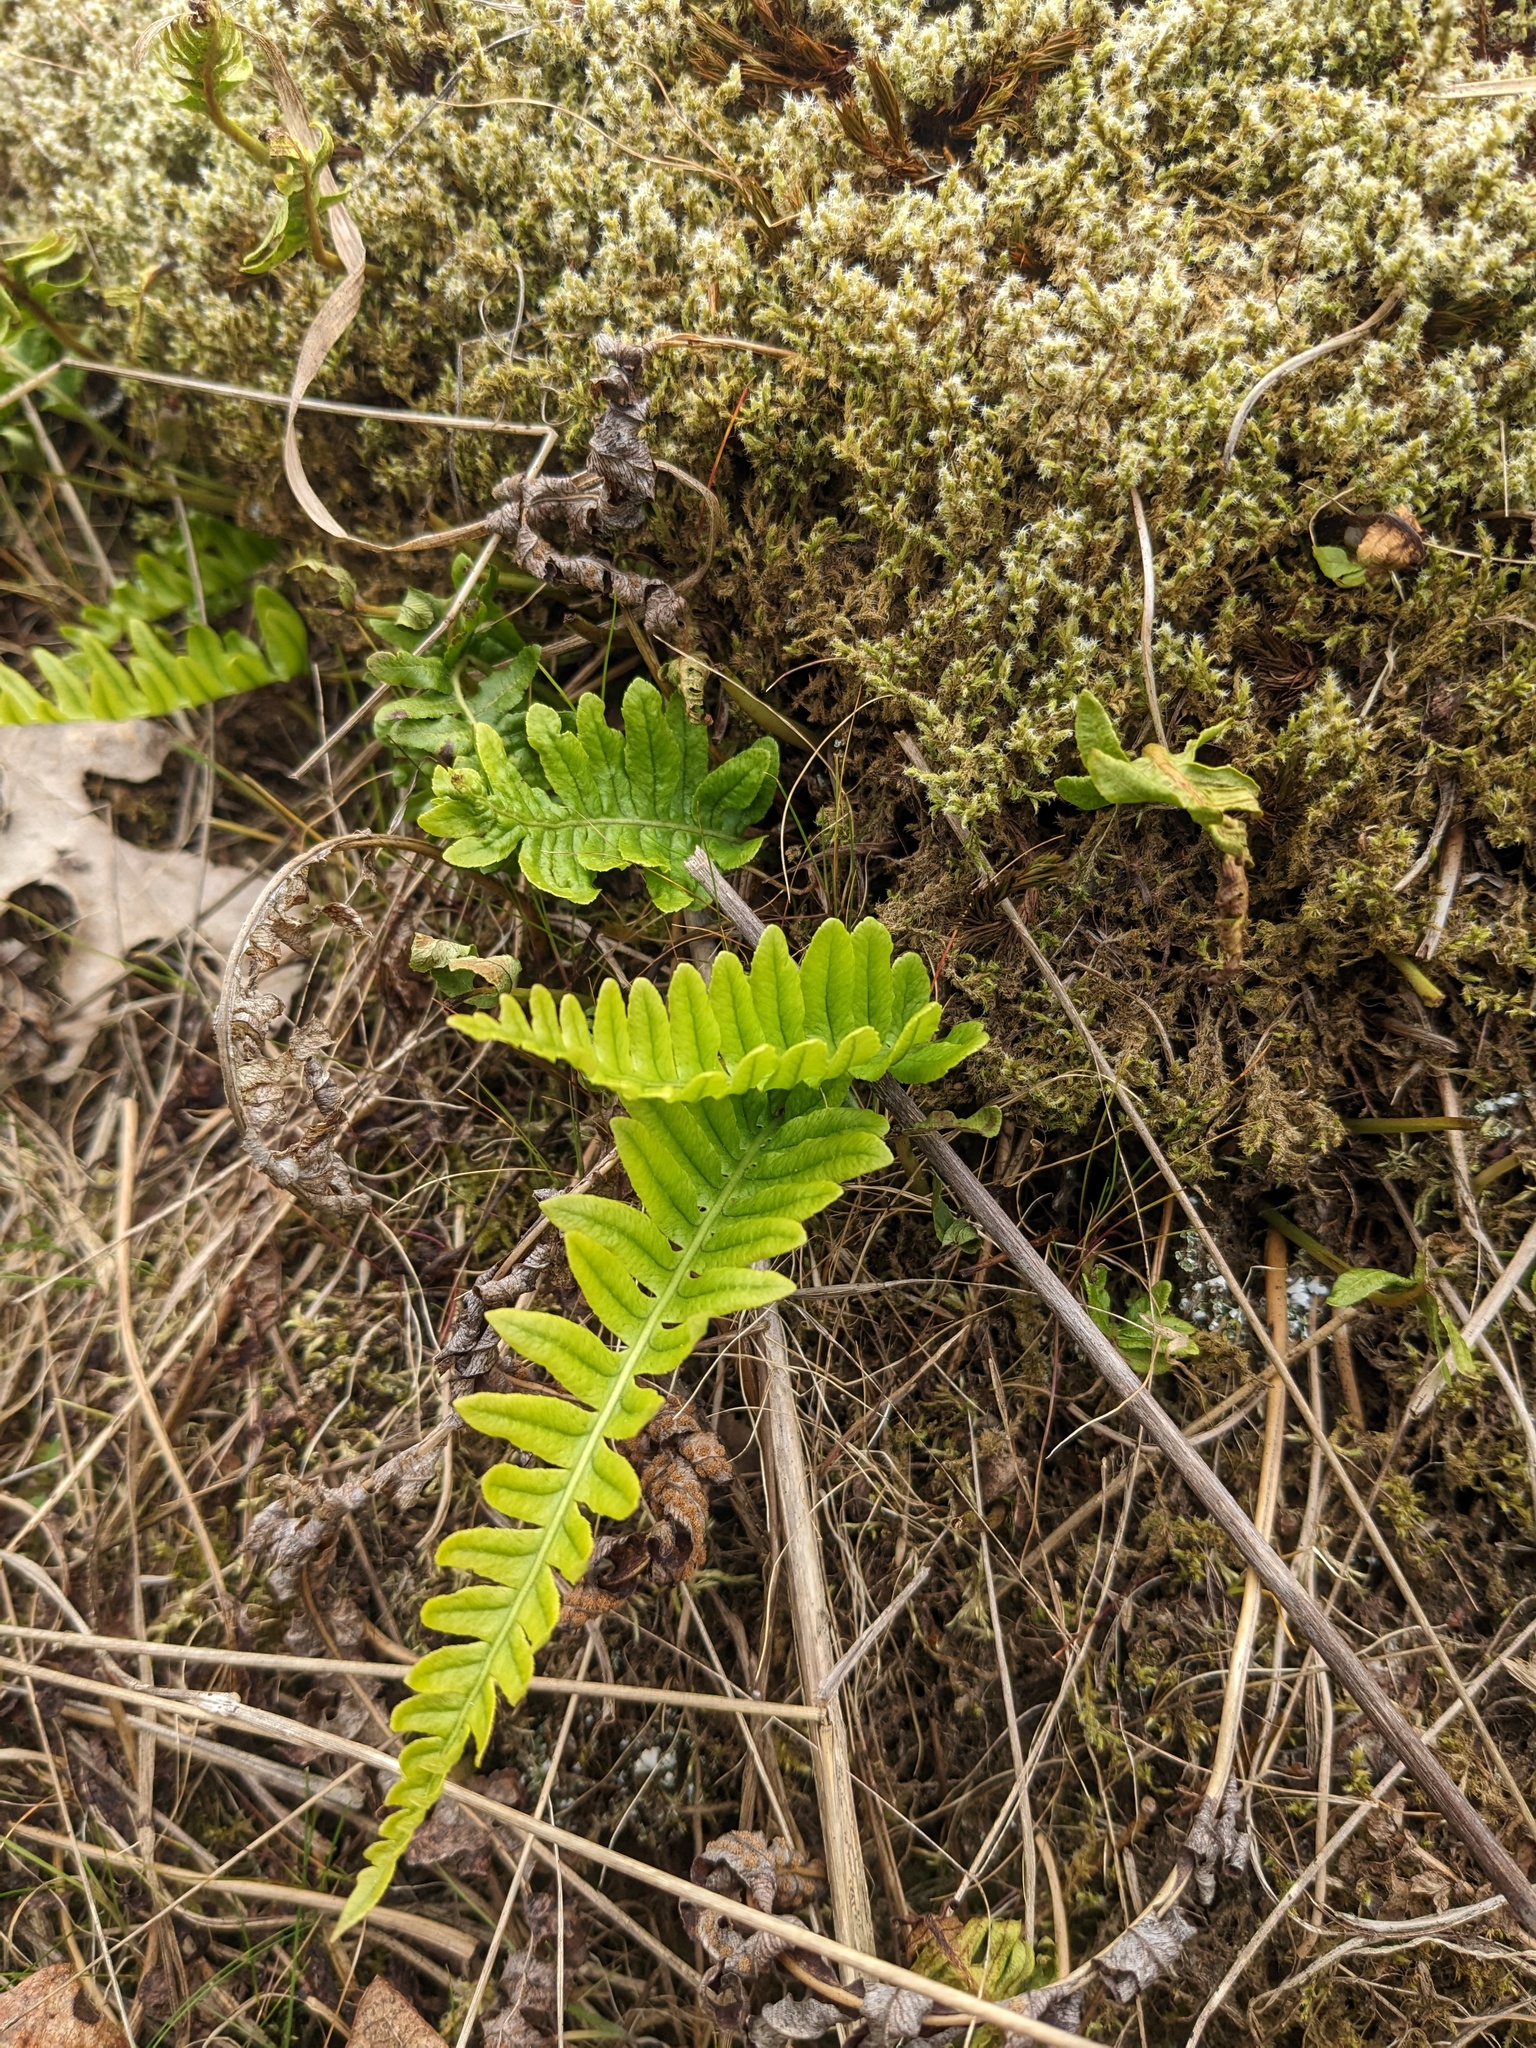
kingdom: Plantae
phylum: Tracheophyta
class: Polypodiopsida
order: Polypodiales
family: Polypodiaceae
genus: Polypodium
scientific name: Polypodium glycyrrhiza
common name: Licorice fern
